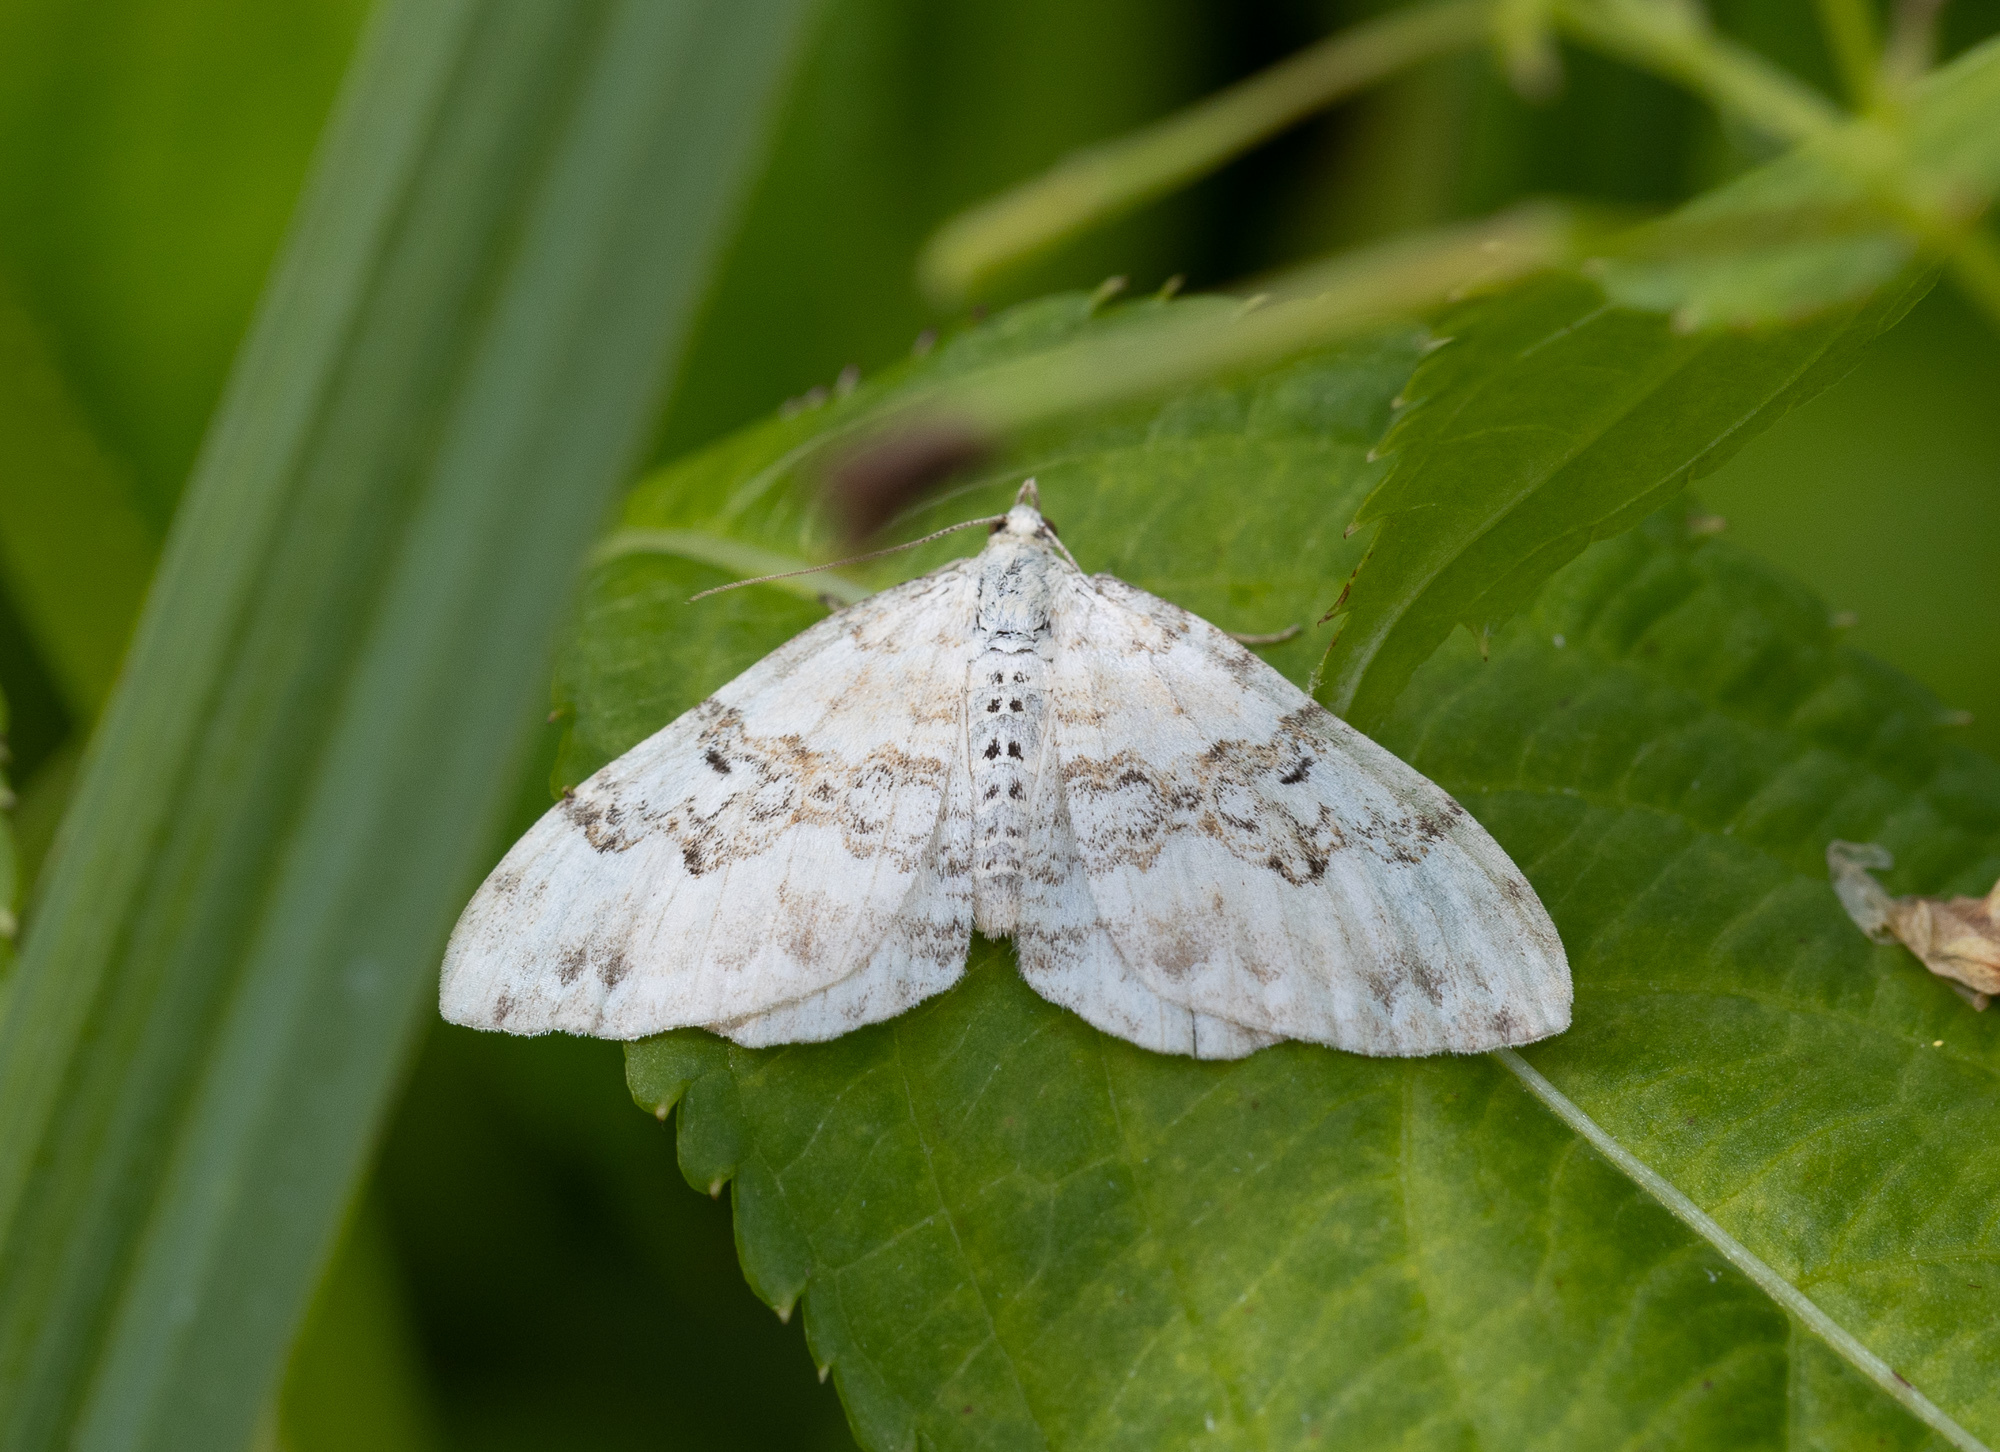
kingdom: Animalia
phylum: Arthropoda
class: Insecta
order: Lepidoptera
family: Geometridae
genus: Xanthorhoe
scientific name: Xanthorhoe montanata
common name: Silver-ground carpet
